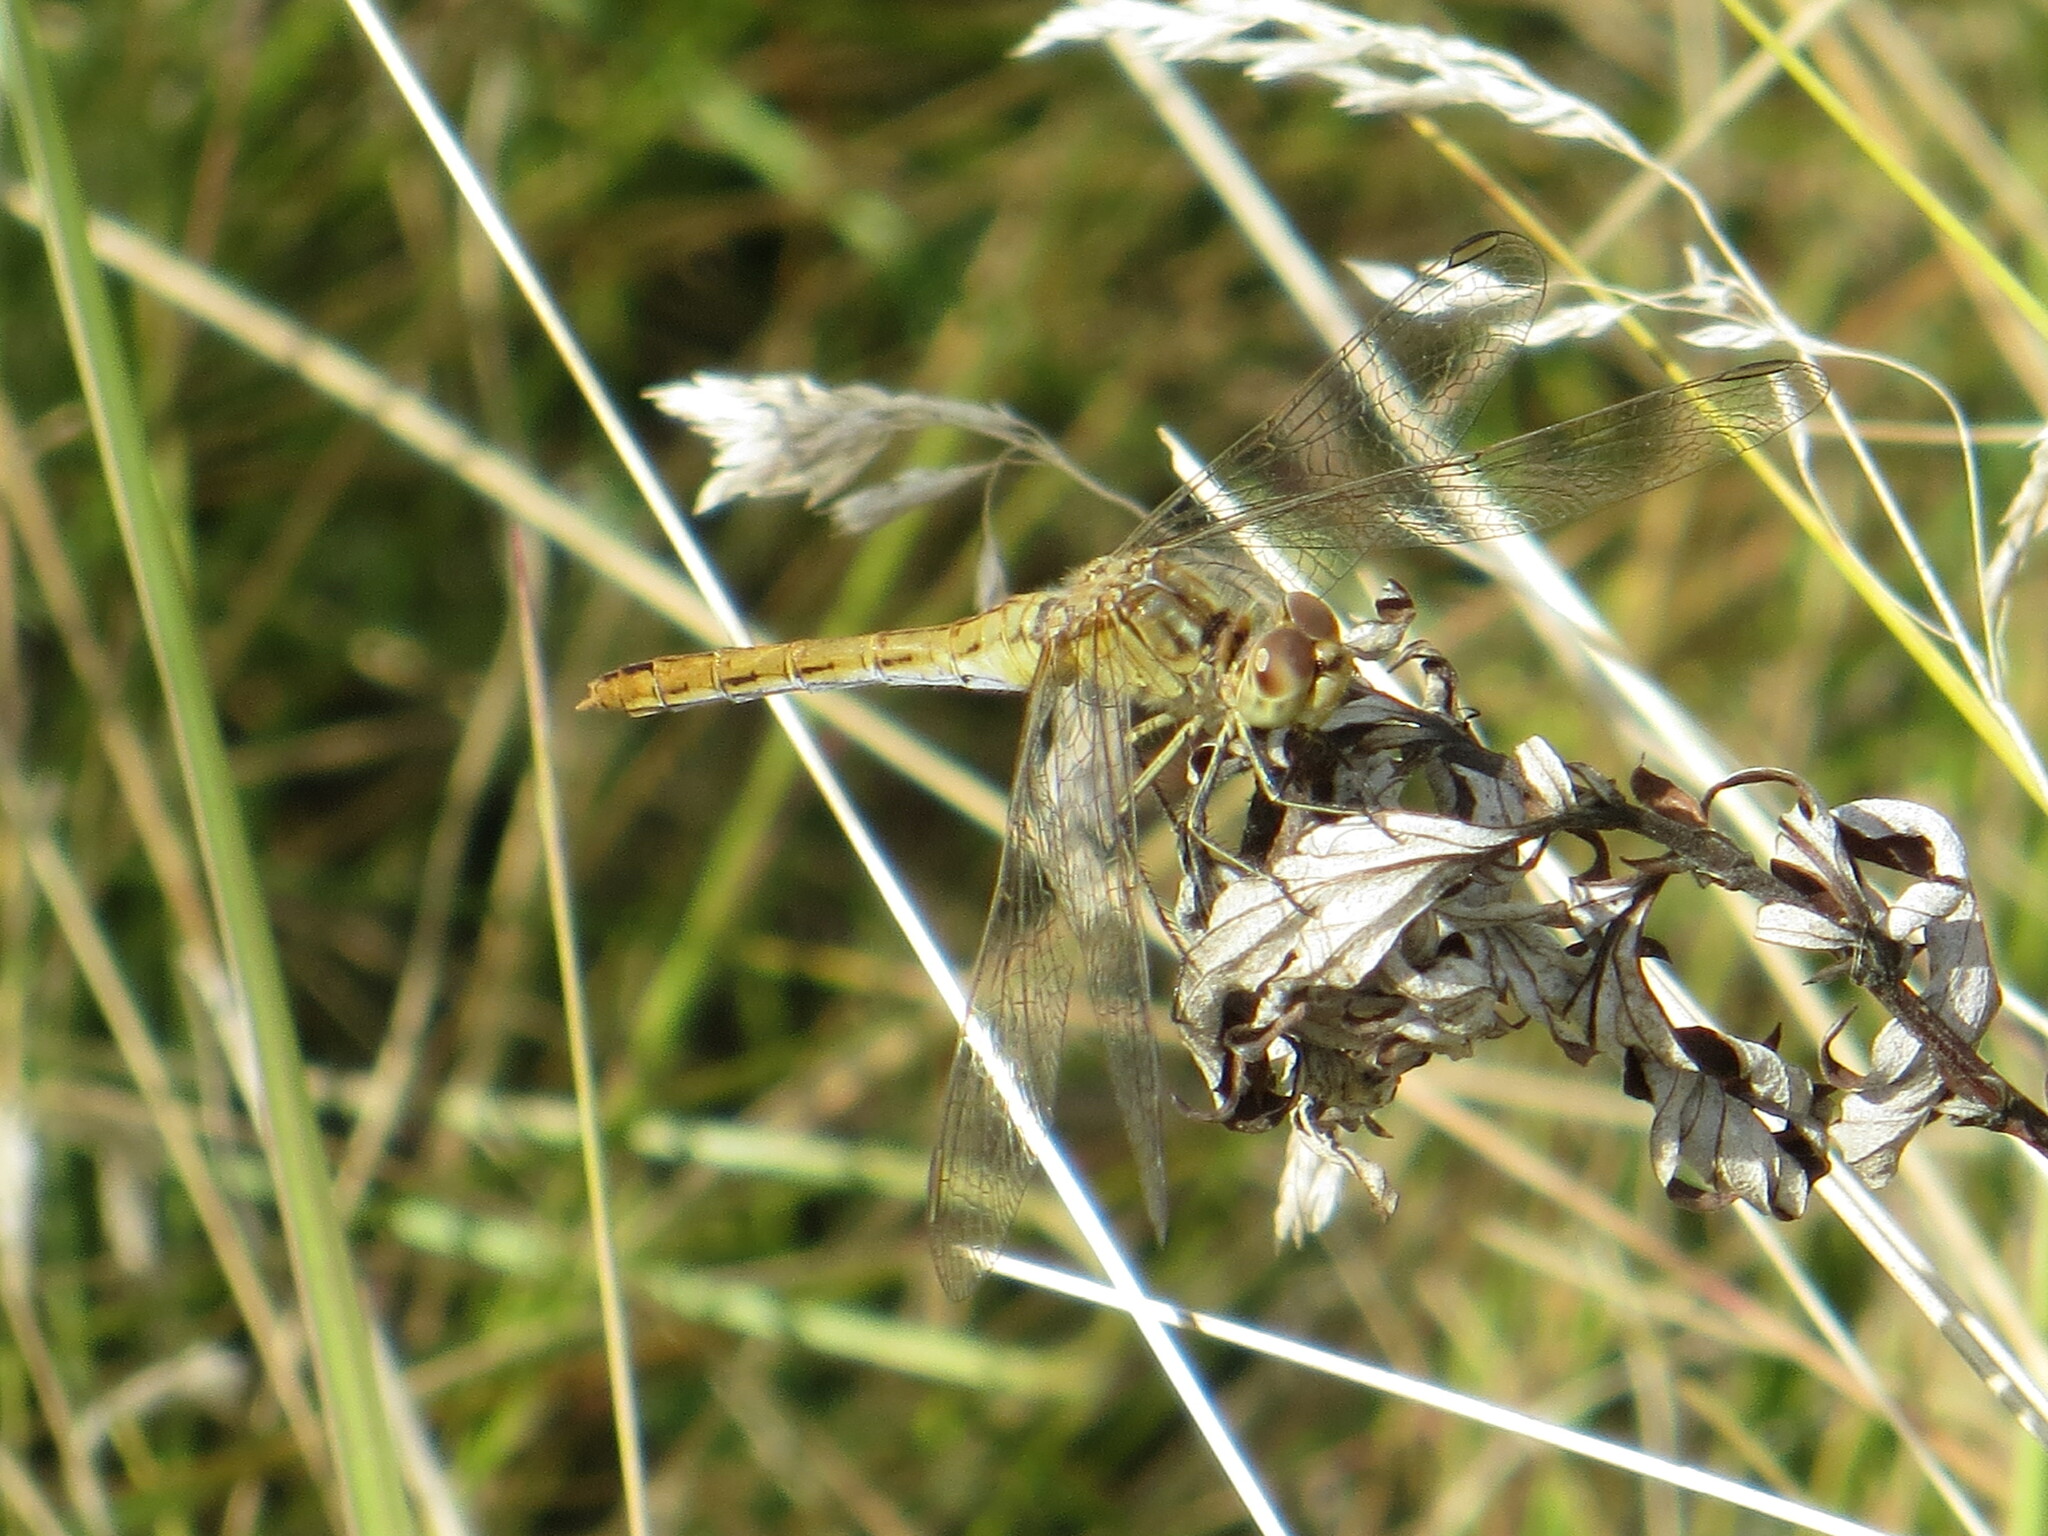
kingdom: Animalia
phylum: Arthropoda
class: Insecta
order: Odonata
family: Libellulidae
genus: Sympetrum
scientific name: Sympetrum meridionale
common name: Southern darter
